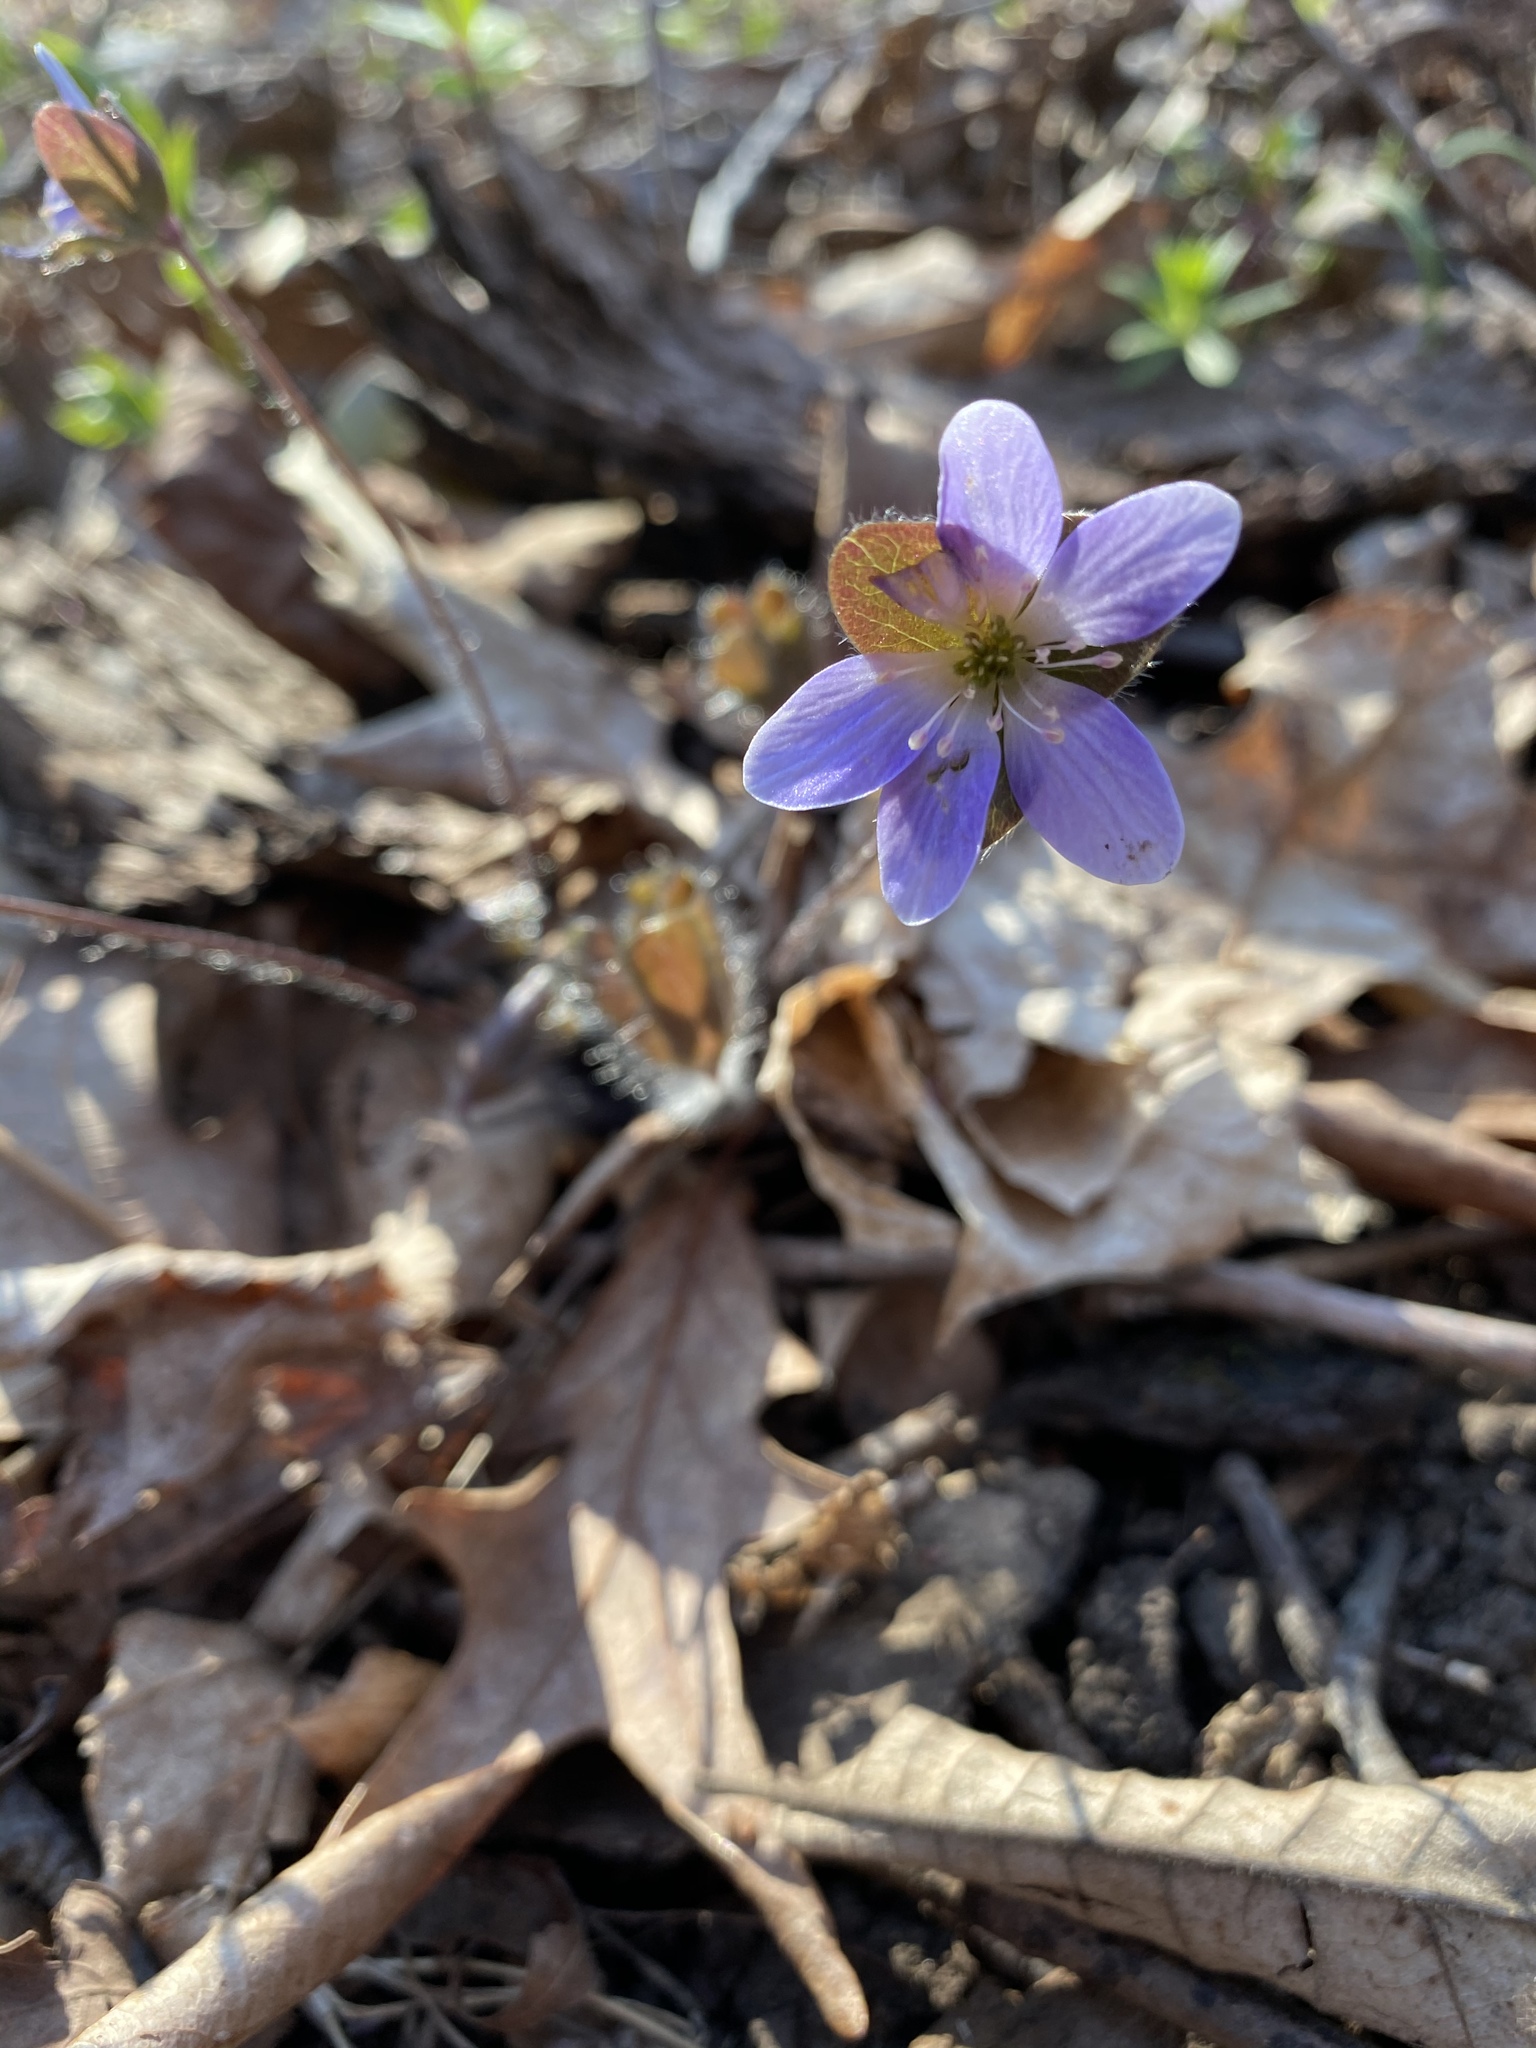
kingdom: Plantae
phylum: Tracheophyta
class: Magnoliopsida
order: Ranunculales
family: Ranunculaceae
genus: Hepatica
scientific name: Hepatica americana
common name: American hepatica
